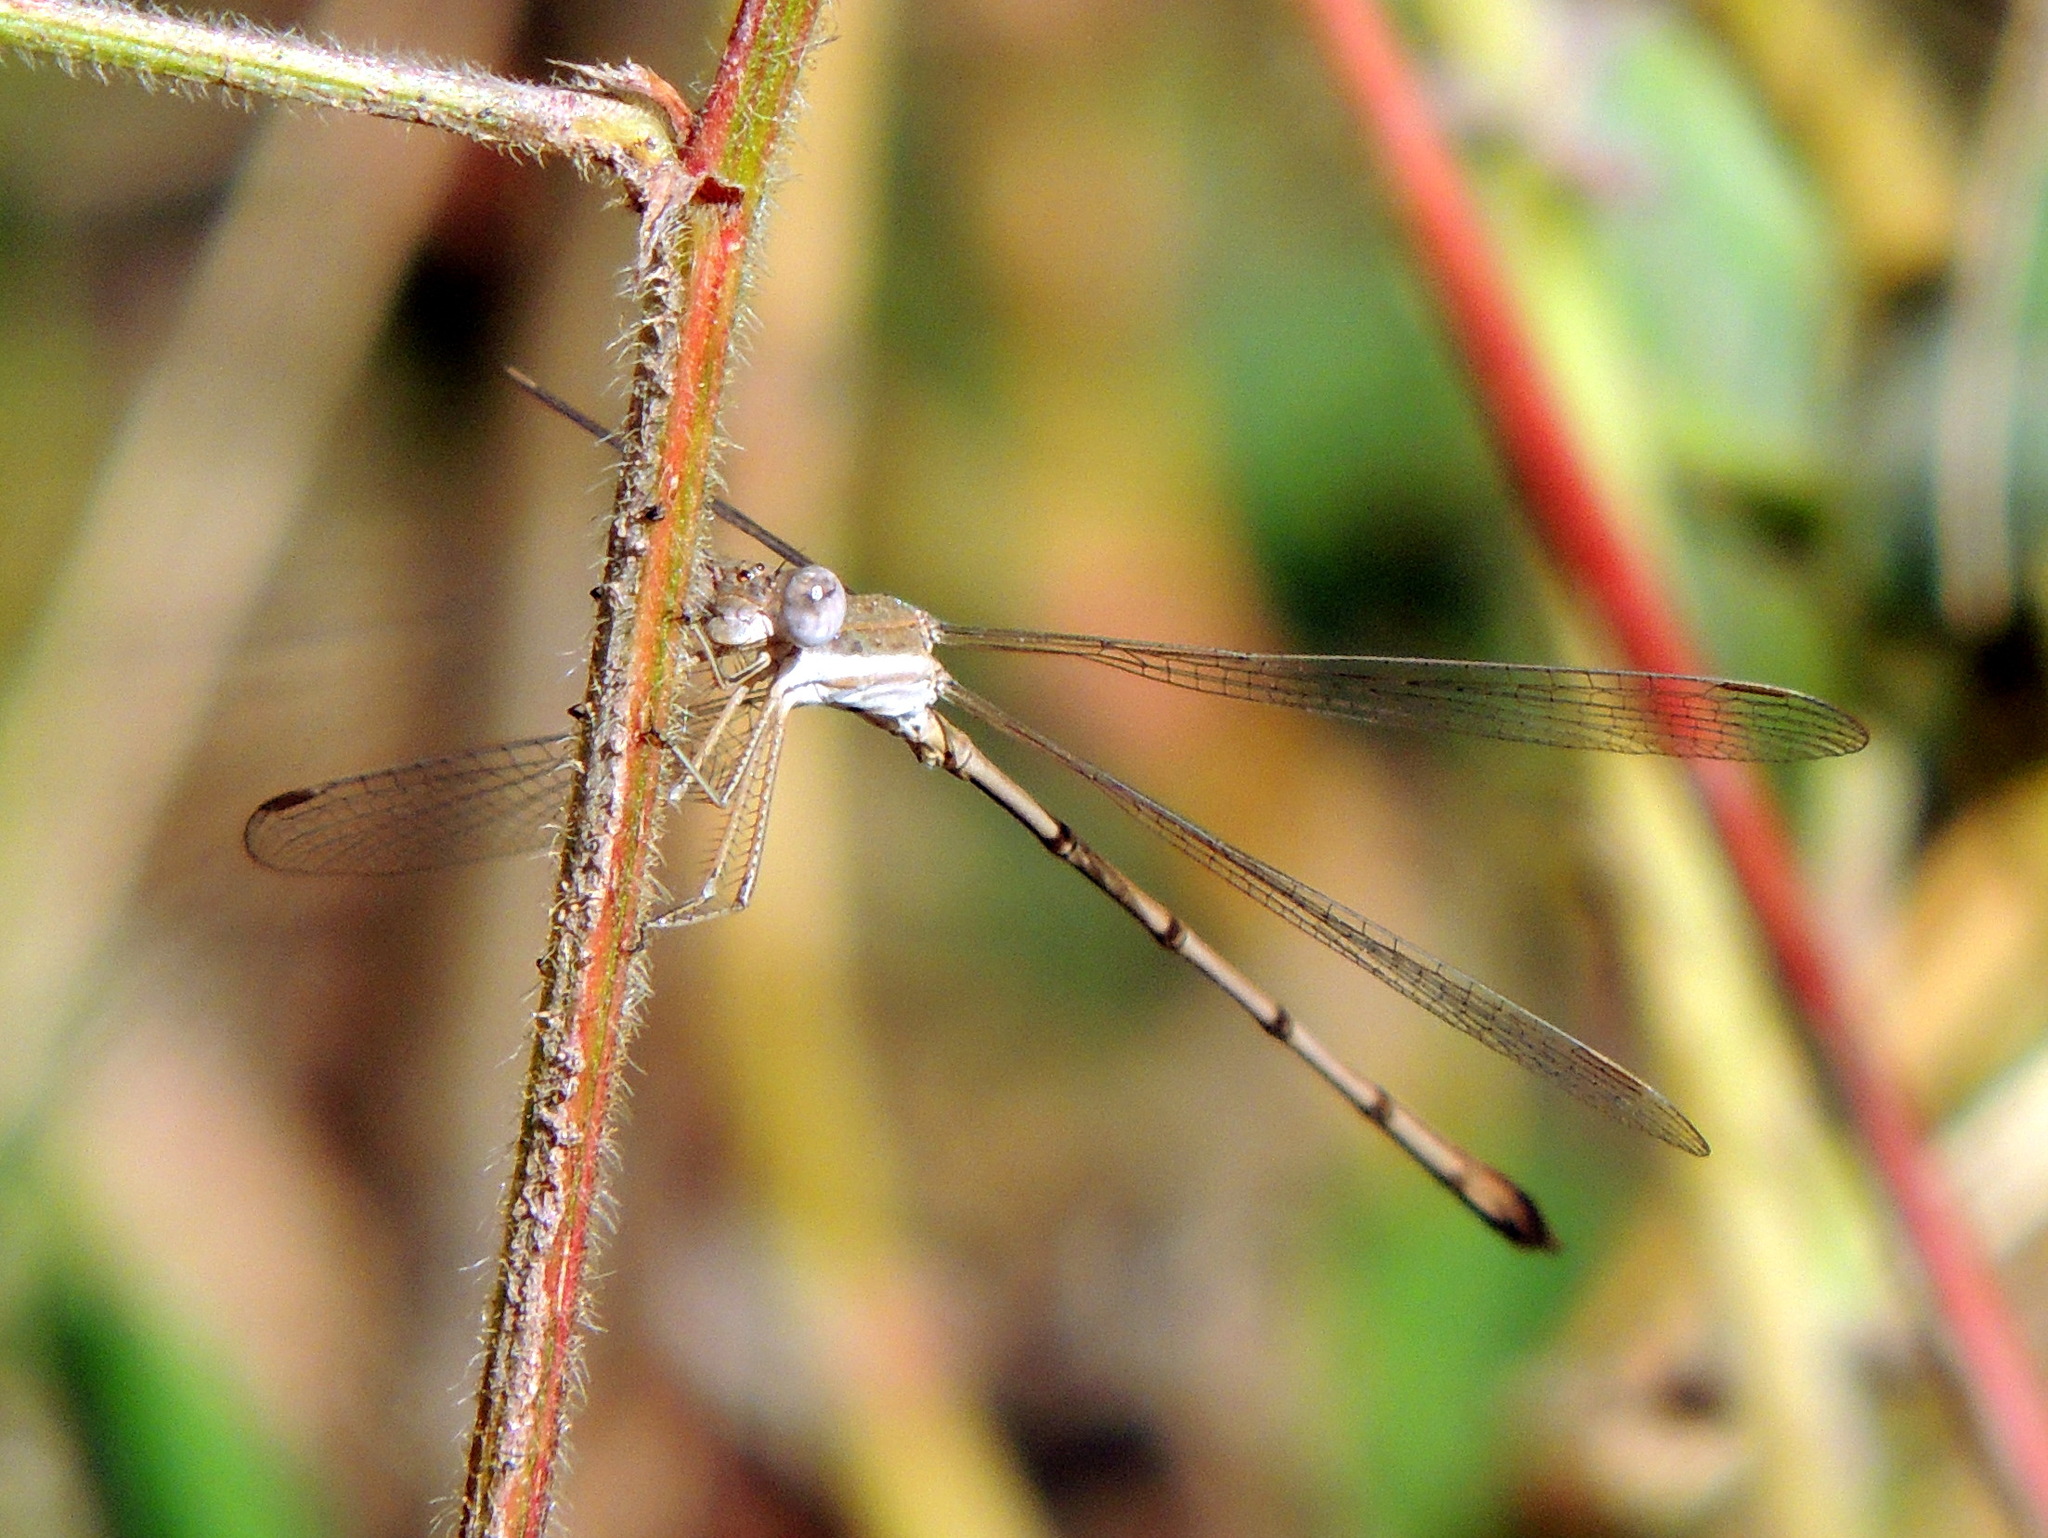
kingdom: Animalia
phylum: Arthropoda
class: Insecta
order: Odonata
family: Lestidae
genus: Lestes
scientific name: Lestes ochraceus
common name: Ochre spreadwing
